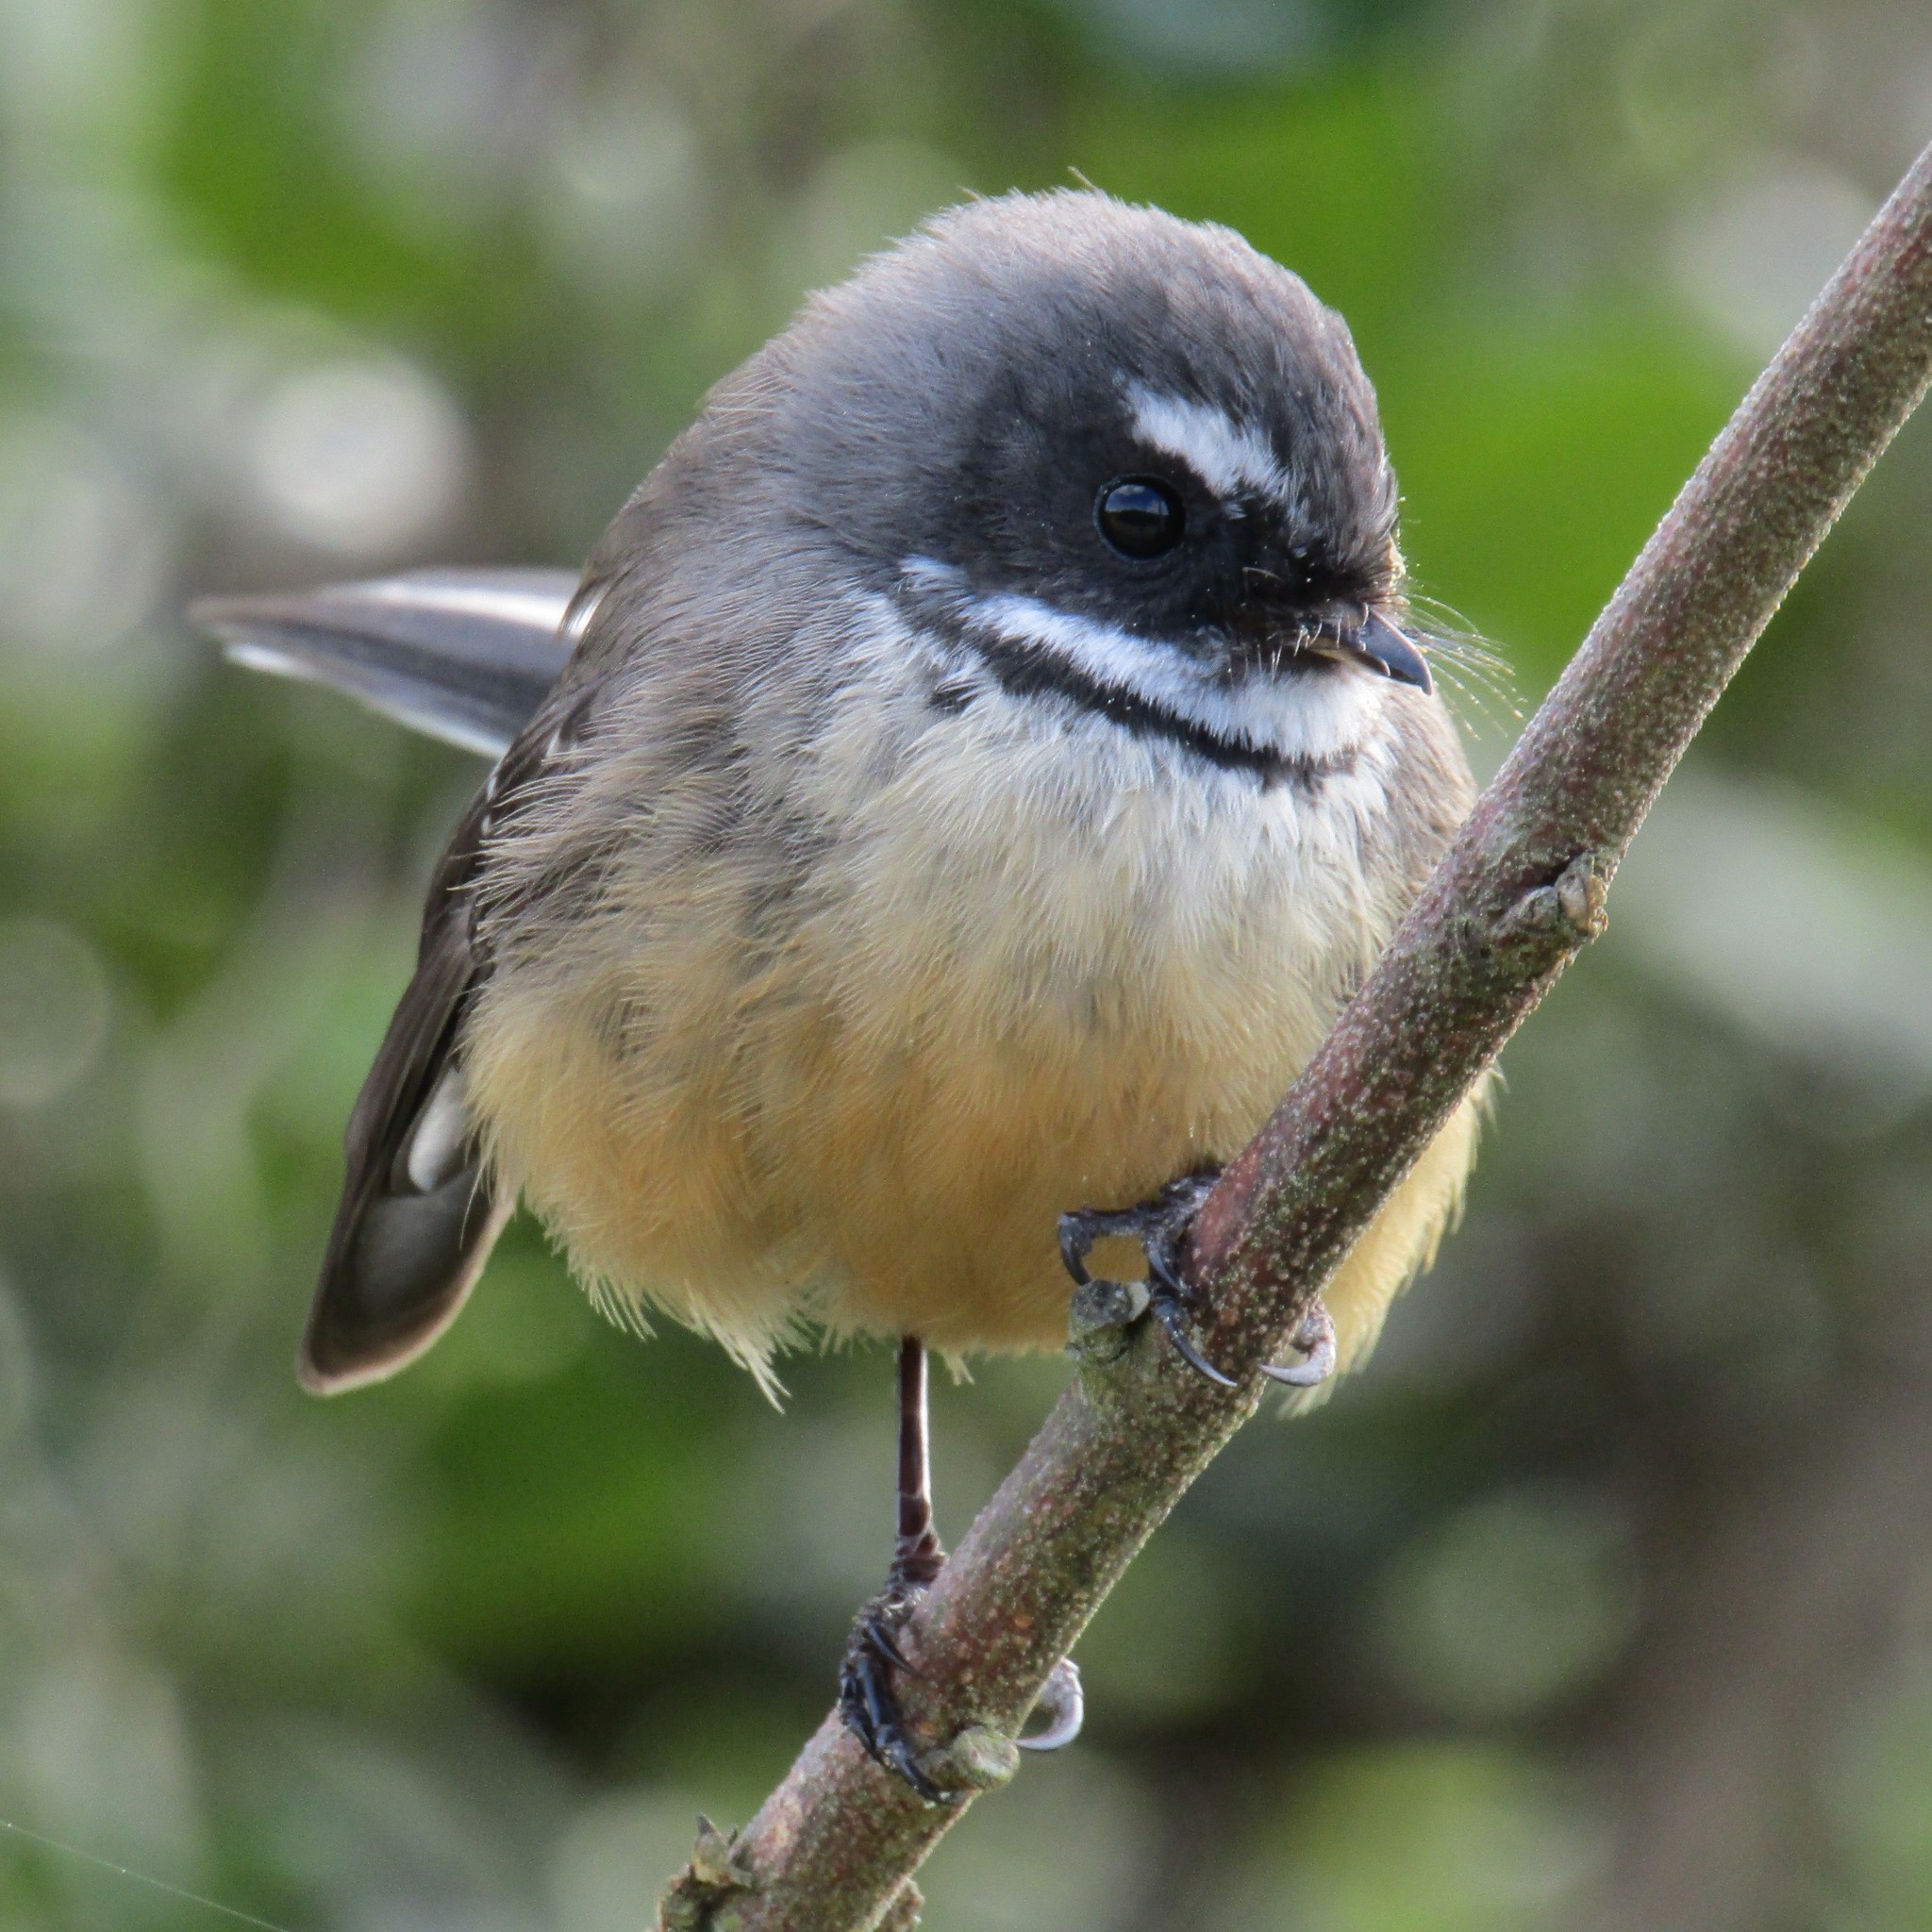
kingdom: Animalia
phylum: Chordata
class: Aves
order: Passeriformes
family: Rhipiduridae
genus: Rhipidura
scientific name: Rhipidura fuliginosa
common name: New zealand fantail
